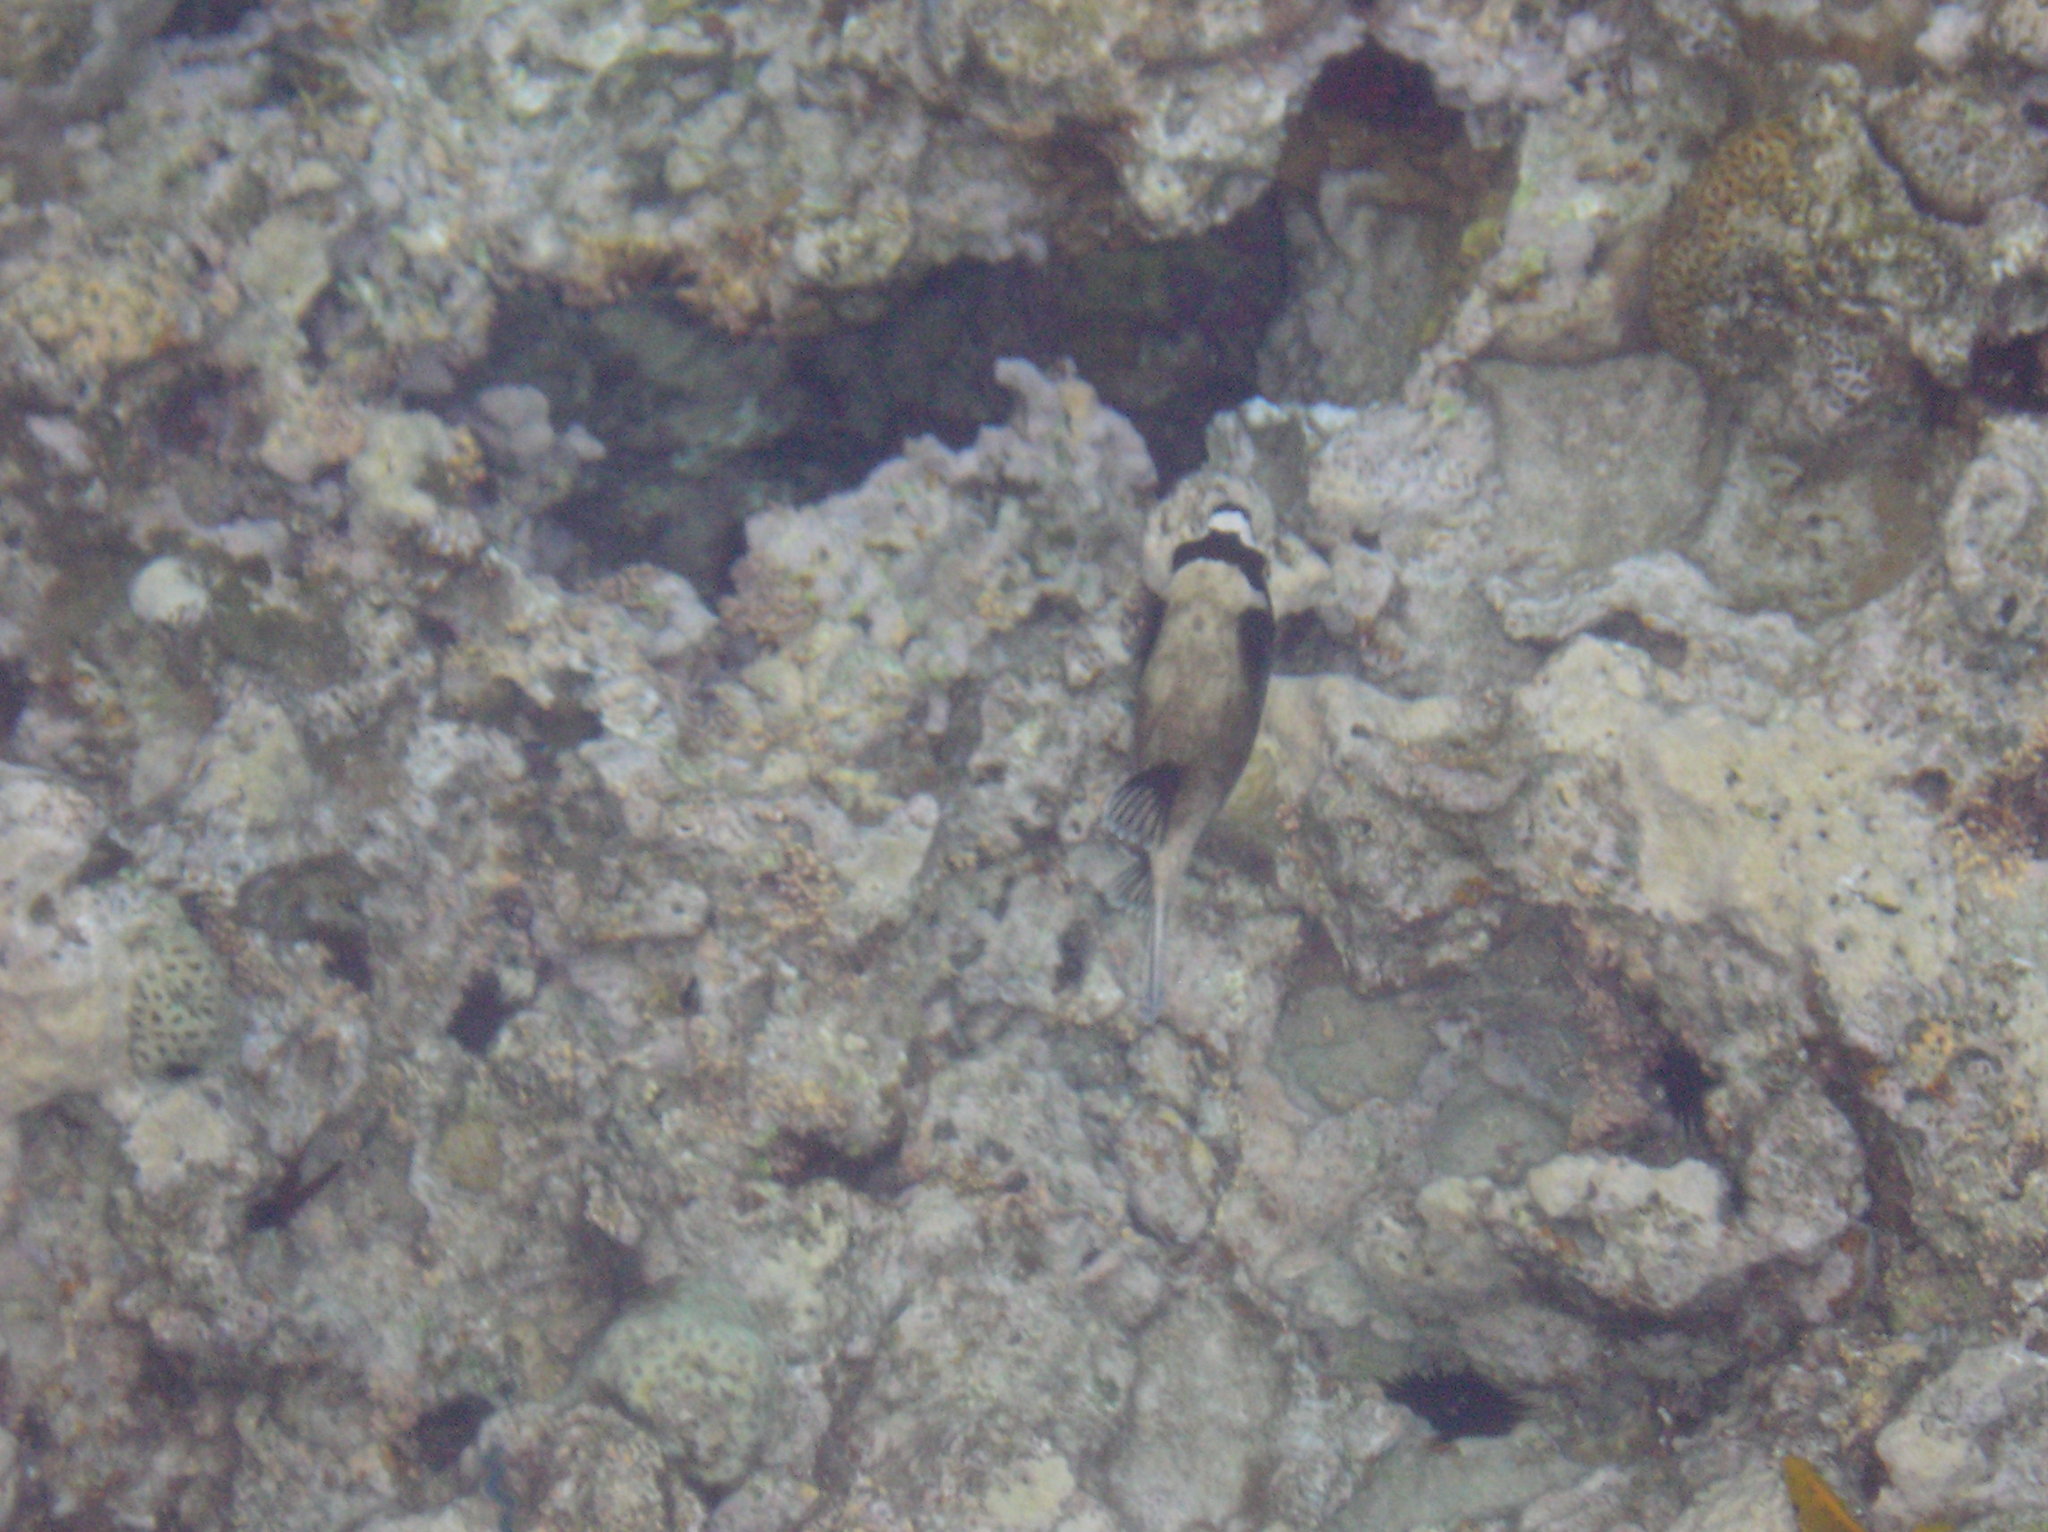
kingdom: Animalia
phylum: Chordata
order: Tetraodontiformes
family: Tetraodontidae
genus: Arothron
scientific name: Arothron diadematus
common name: Masked puffer
